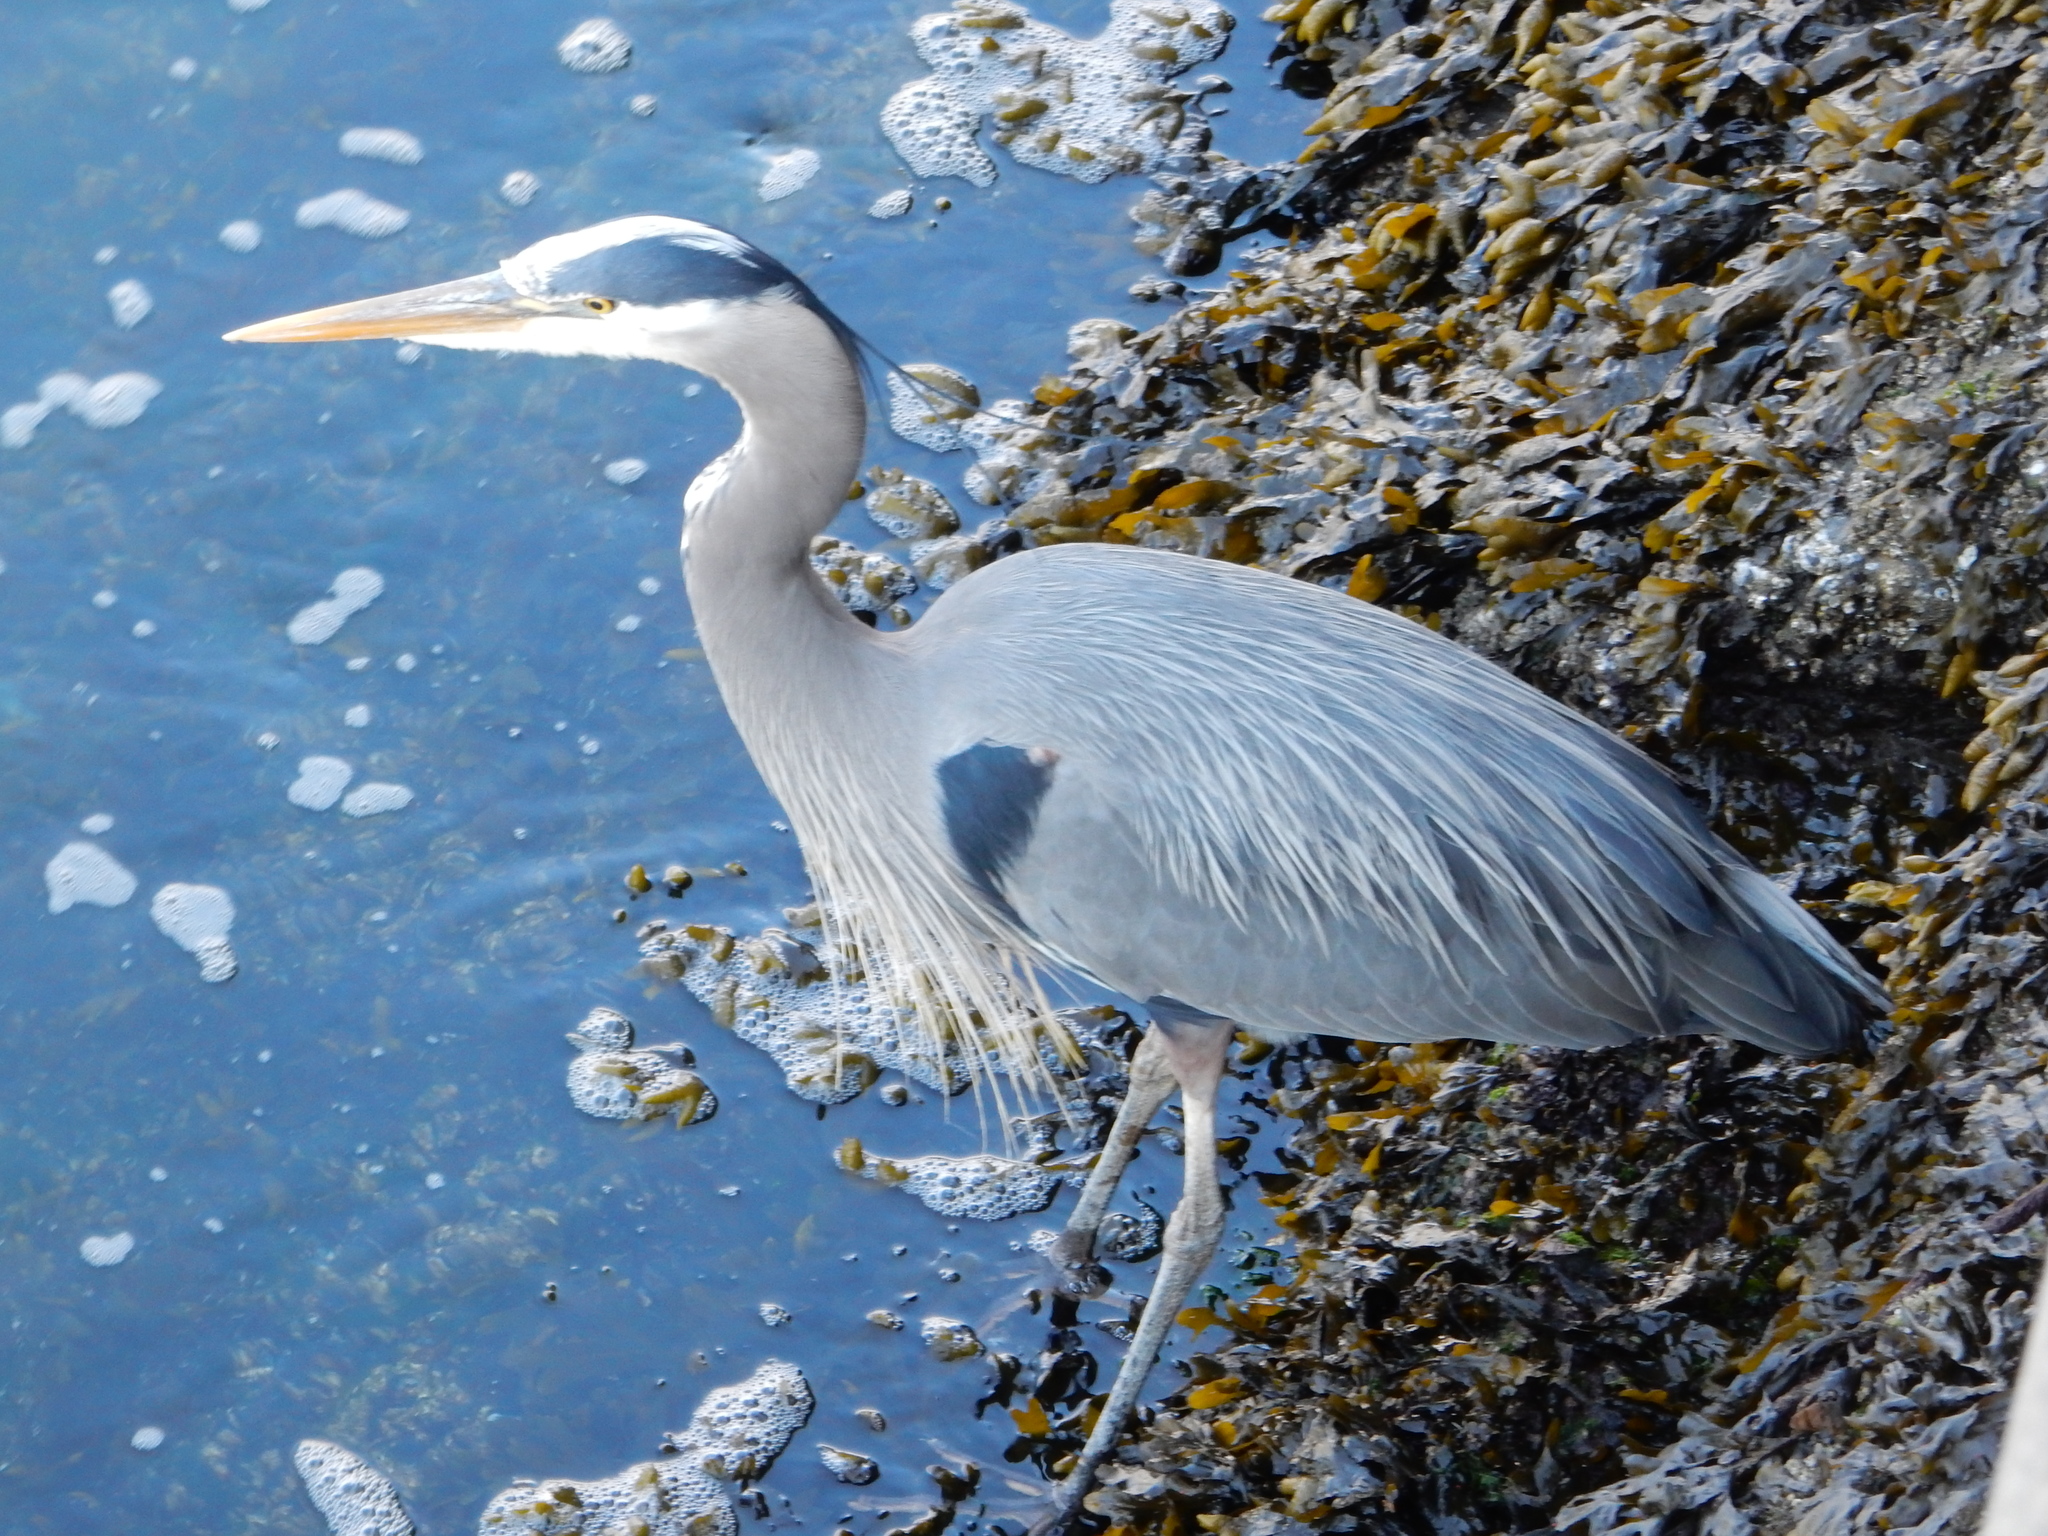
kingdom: Animalia
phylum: Chordata
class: Aves
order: Pelecaniformes
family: Ardeidae
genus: Ardea
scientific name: Ardea herodias
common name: Great blue heron
